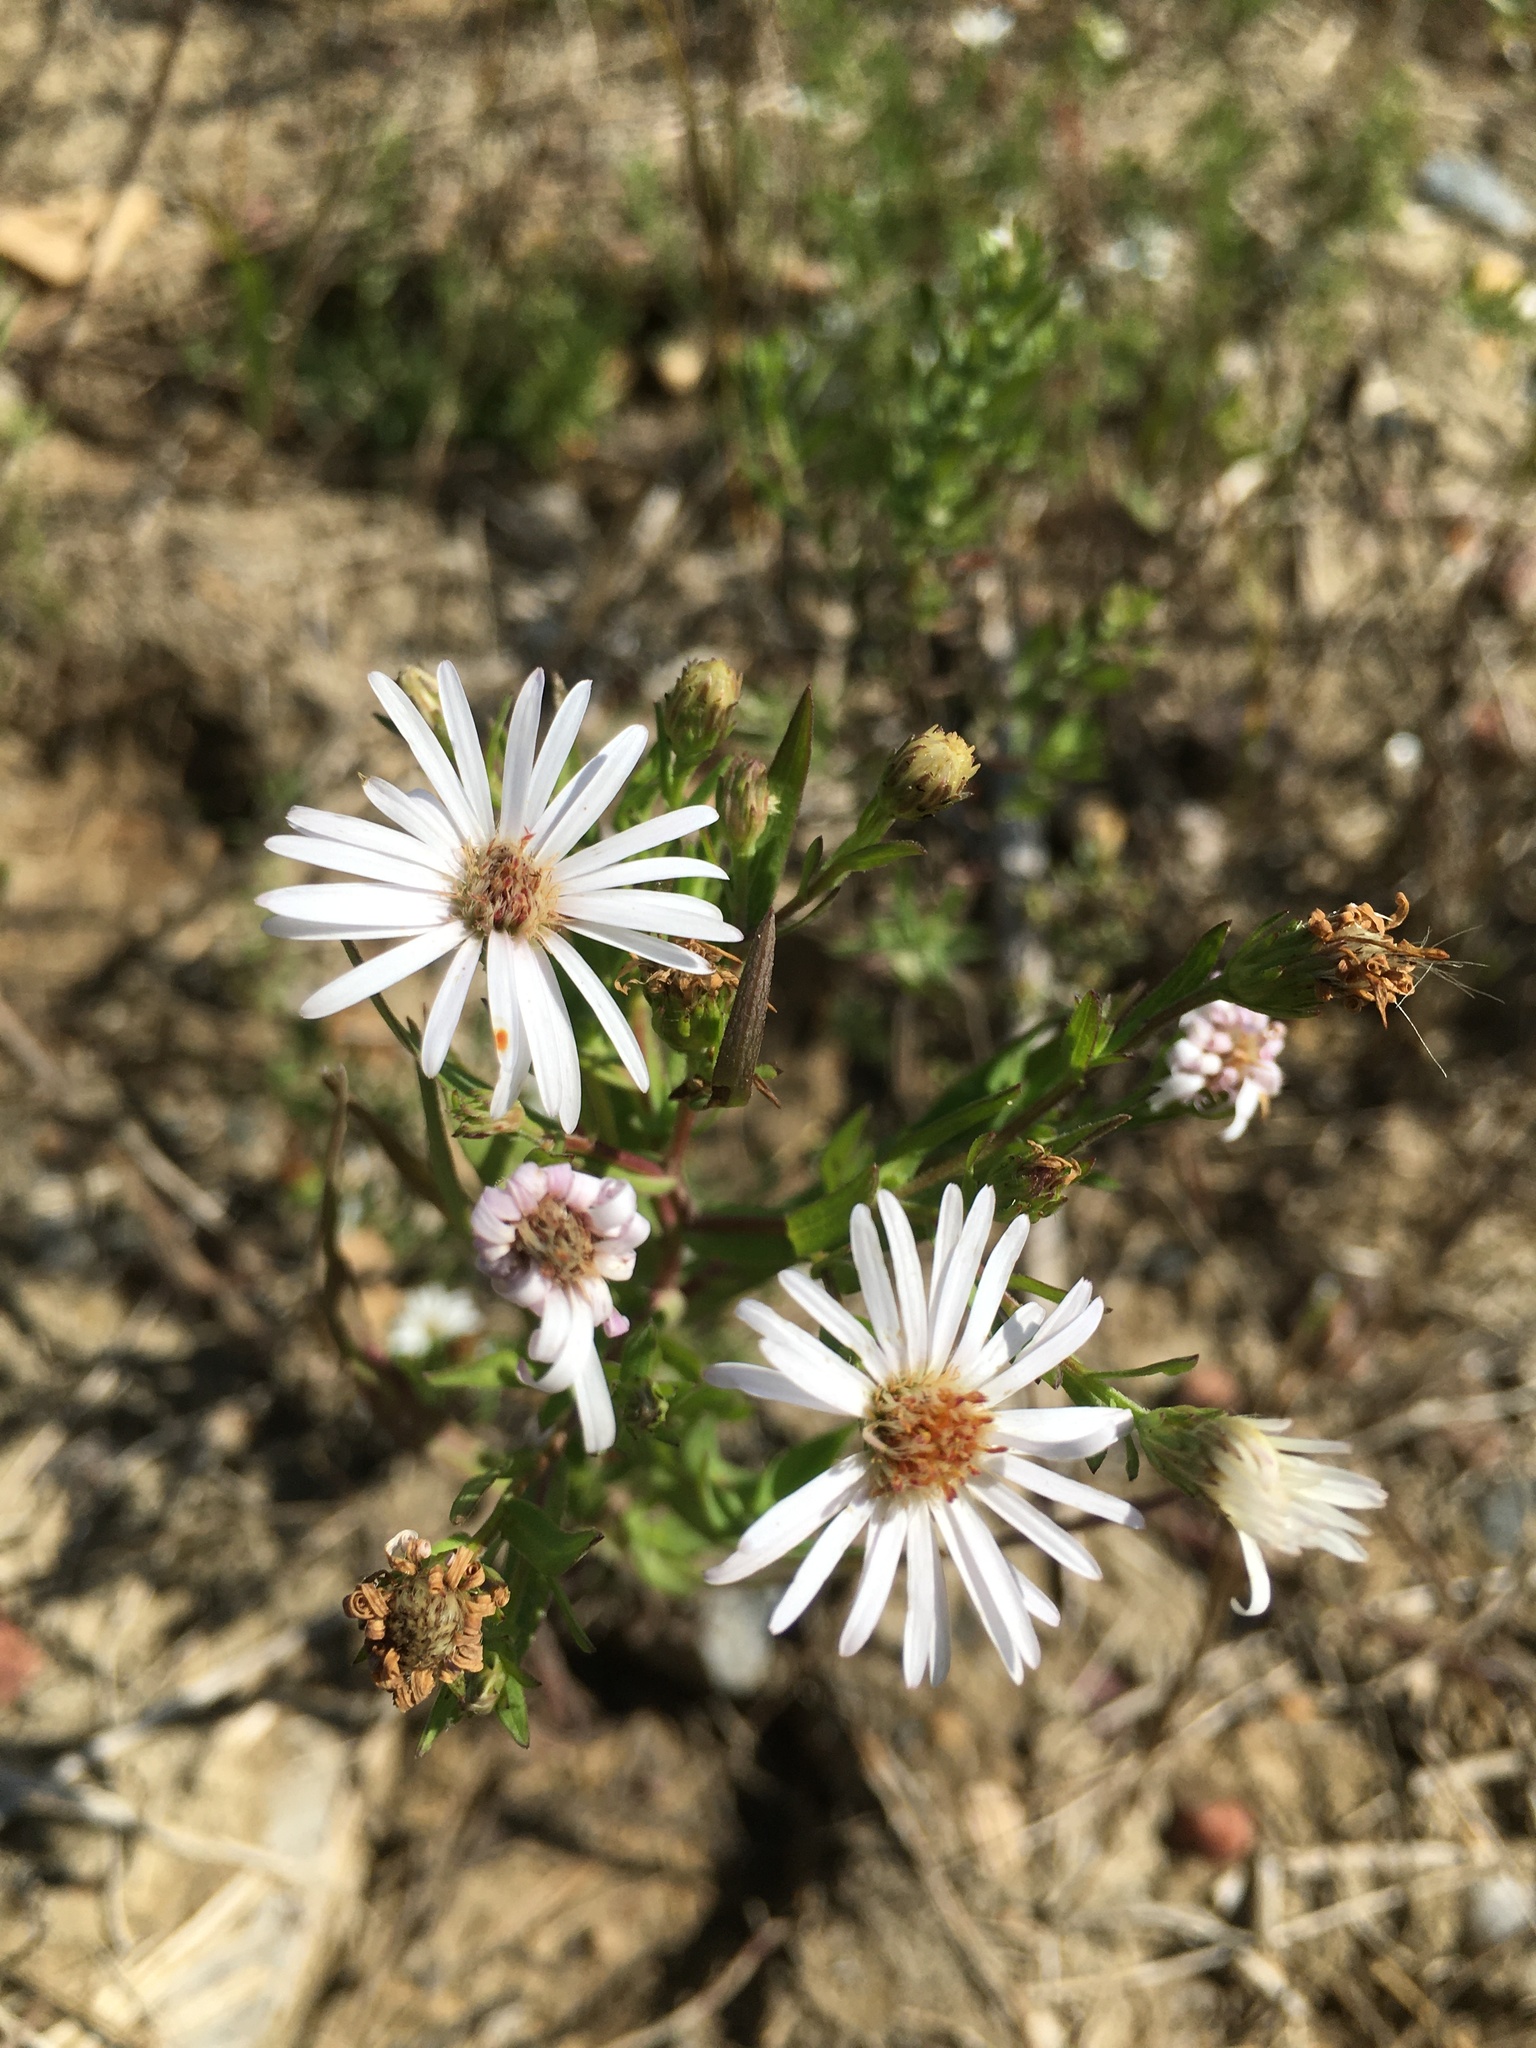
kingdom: Plantae
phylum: Tracheophyta
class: Magnoliopsida
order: Asterales
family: Asteraceae
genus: Symphyotrichum
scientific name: Symphyotrichum lanceolatum
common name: Panicled aster
